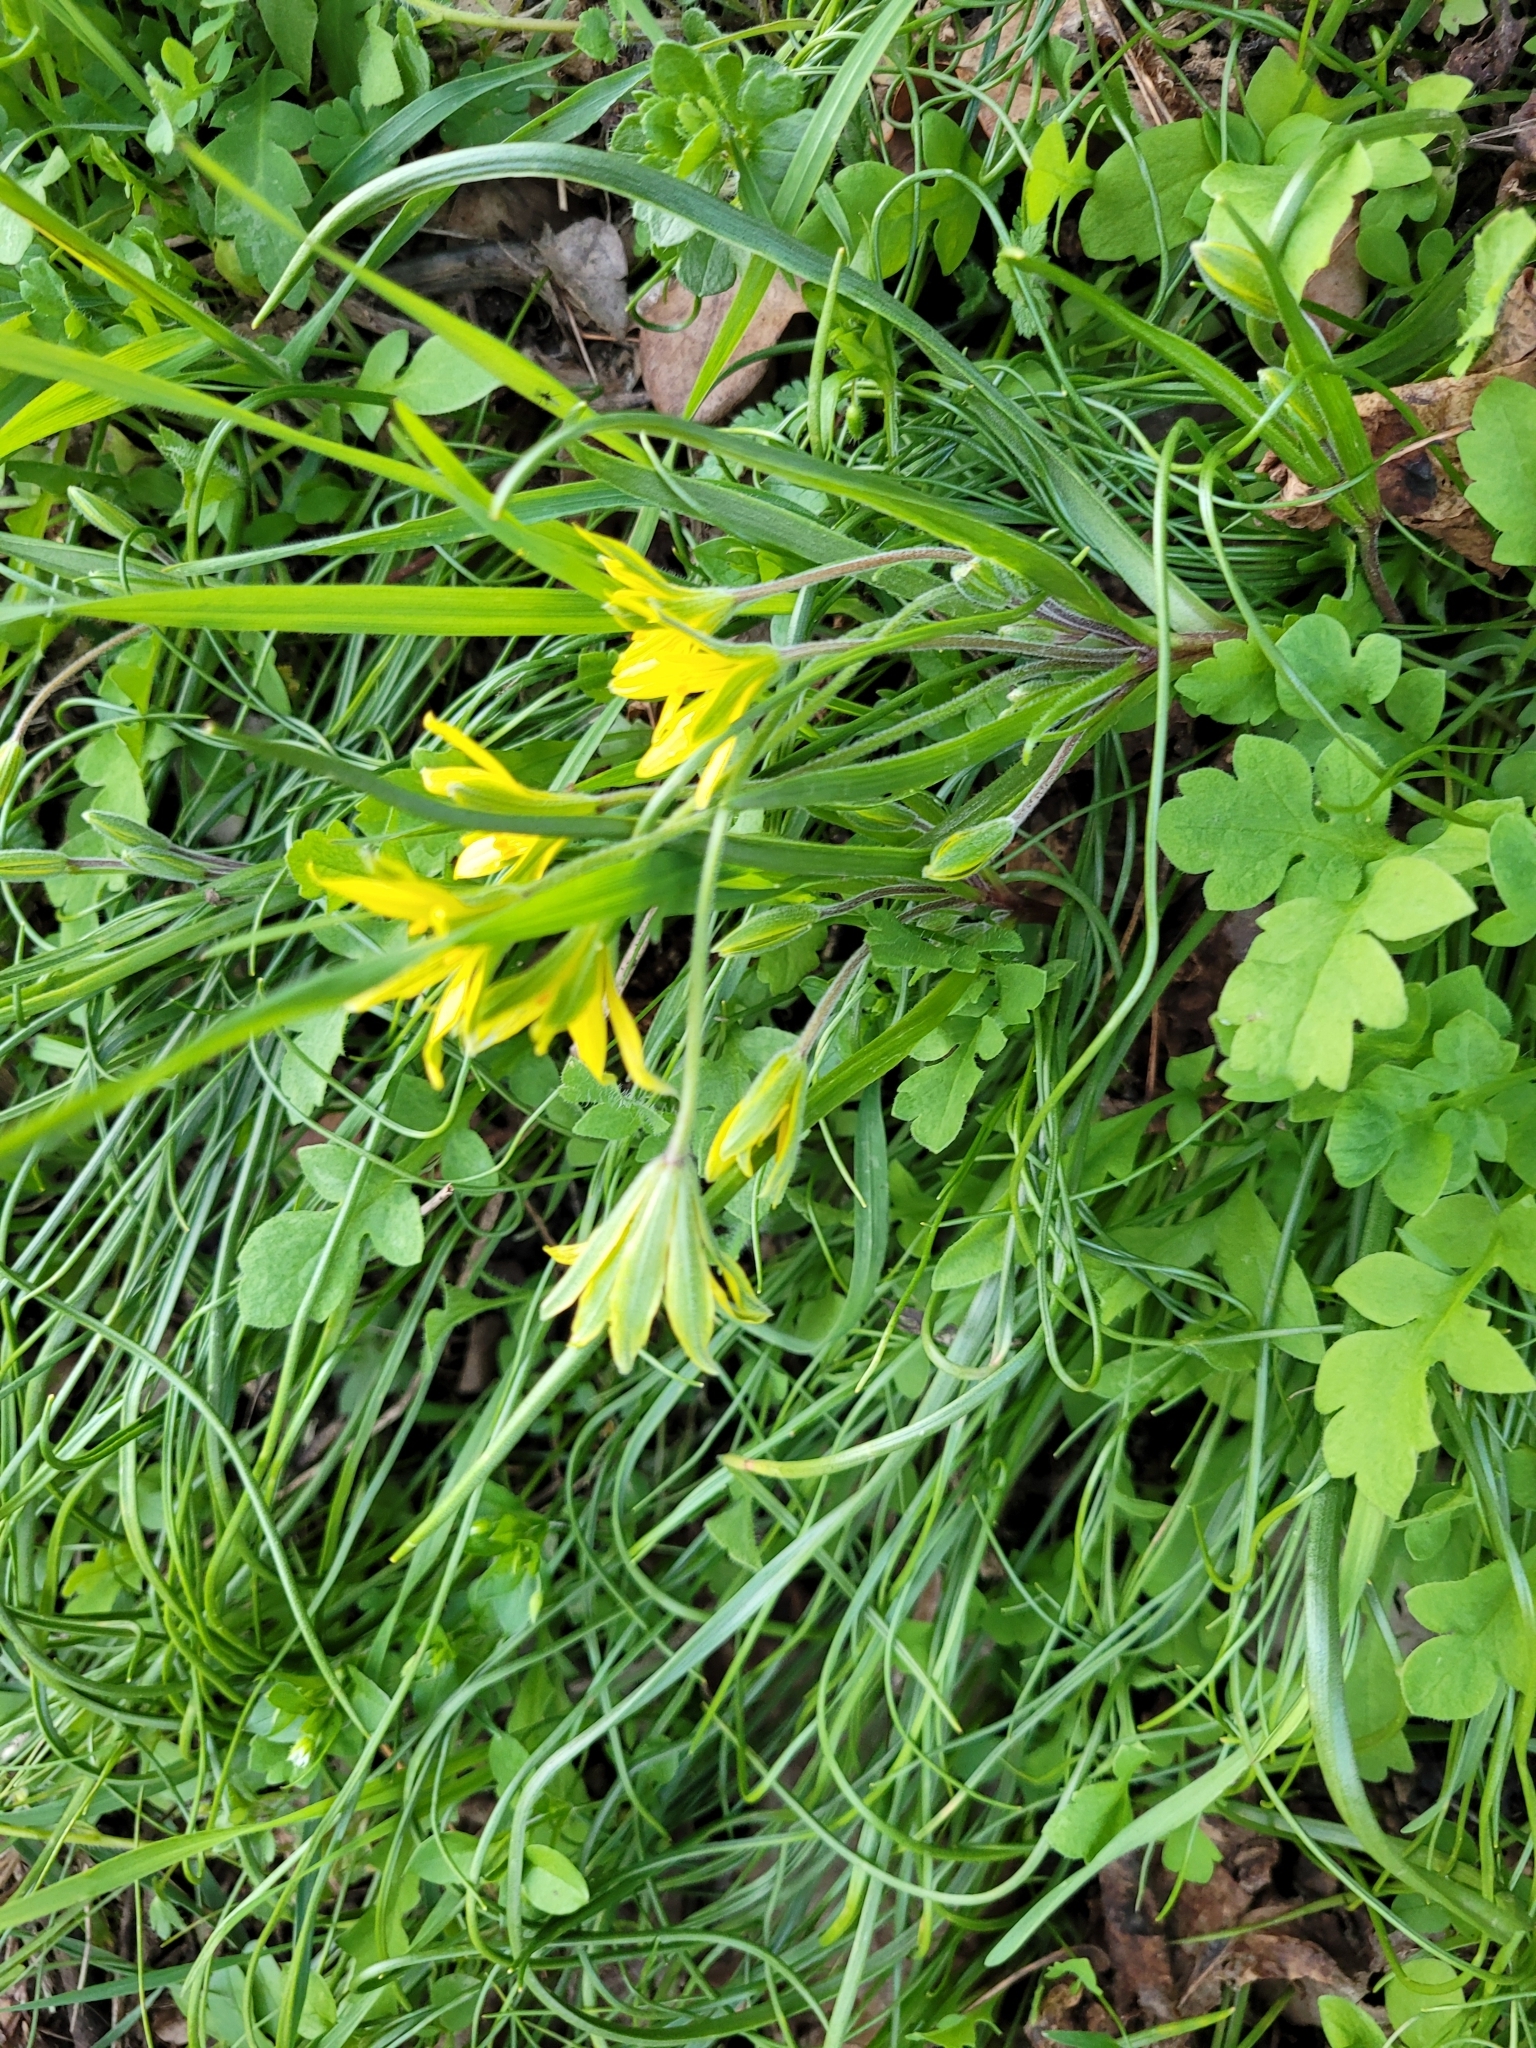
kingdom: Plantae
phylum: Tracheophyta
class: Liliopsida
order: Liliales
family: Liliaceae
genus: Gagea
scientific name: Gagea villosa
